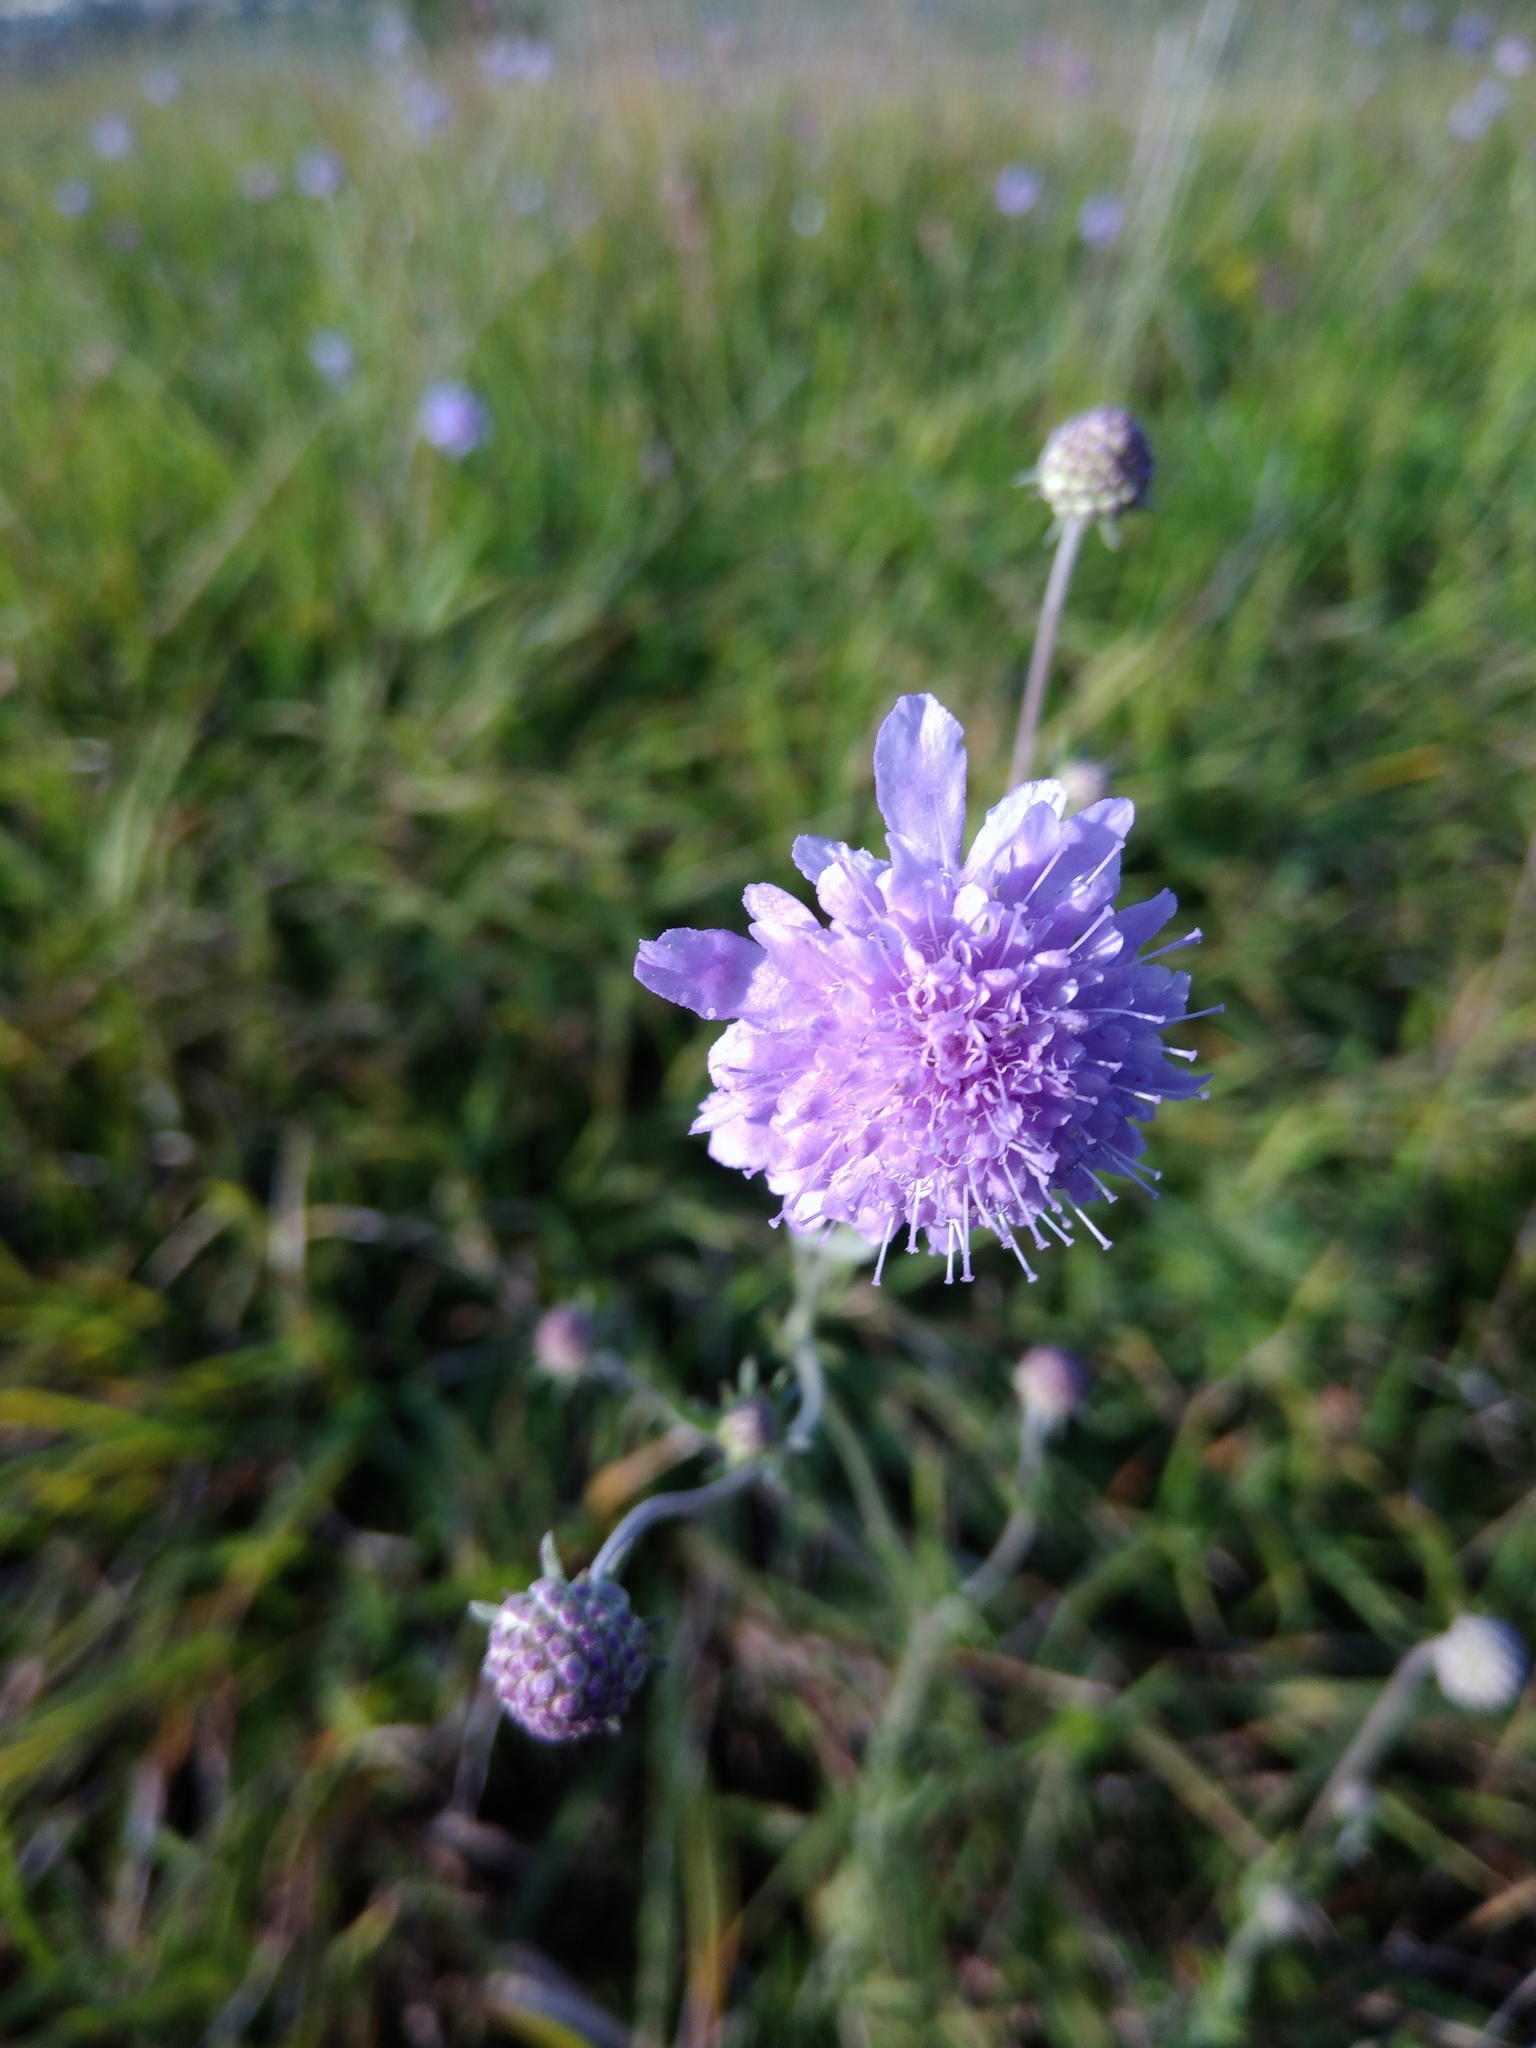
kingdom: Plantae
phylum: Tracheophyta
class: Magnoliopsida
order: Dipsacales
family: Caprifoliaceae
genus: Succisa
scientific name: Succisa pratensis
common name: Devil's-bit
